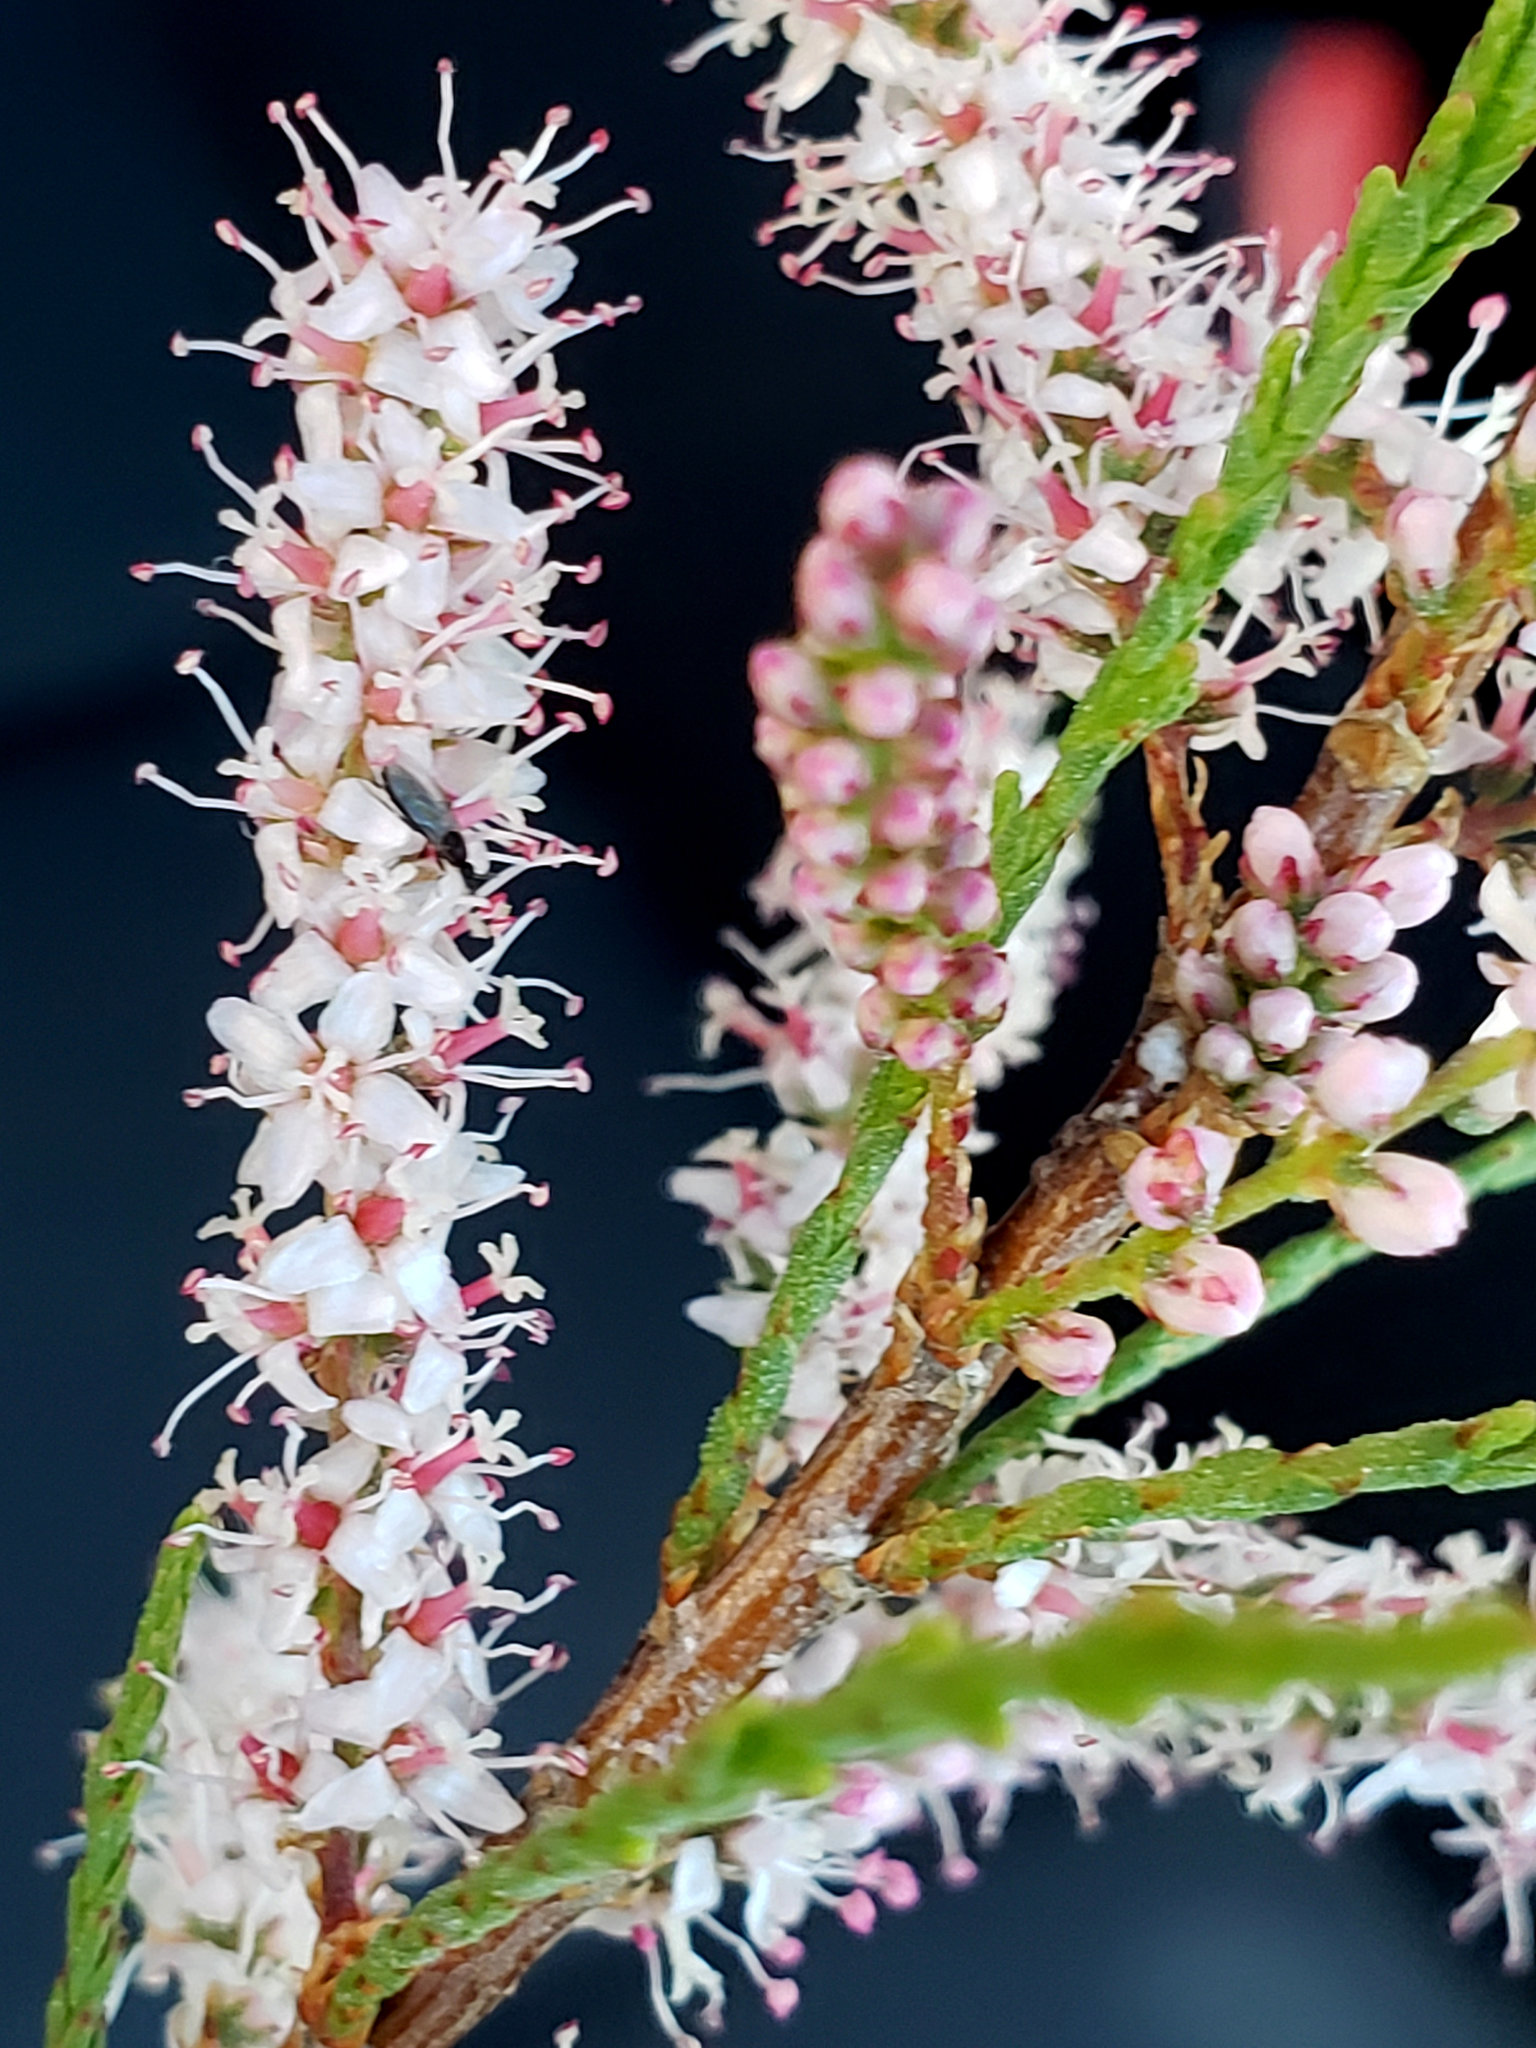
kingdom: Plantae
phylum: Tracheophyta
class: Magnoliopsida
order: Caryophyllales
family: Tamaricaceae
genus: Tamarix
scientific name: Tamarix parviflora
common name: Smallflower tamarisk
